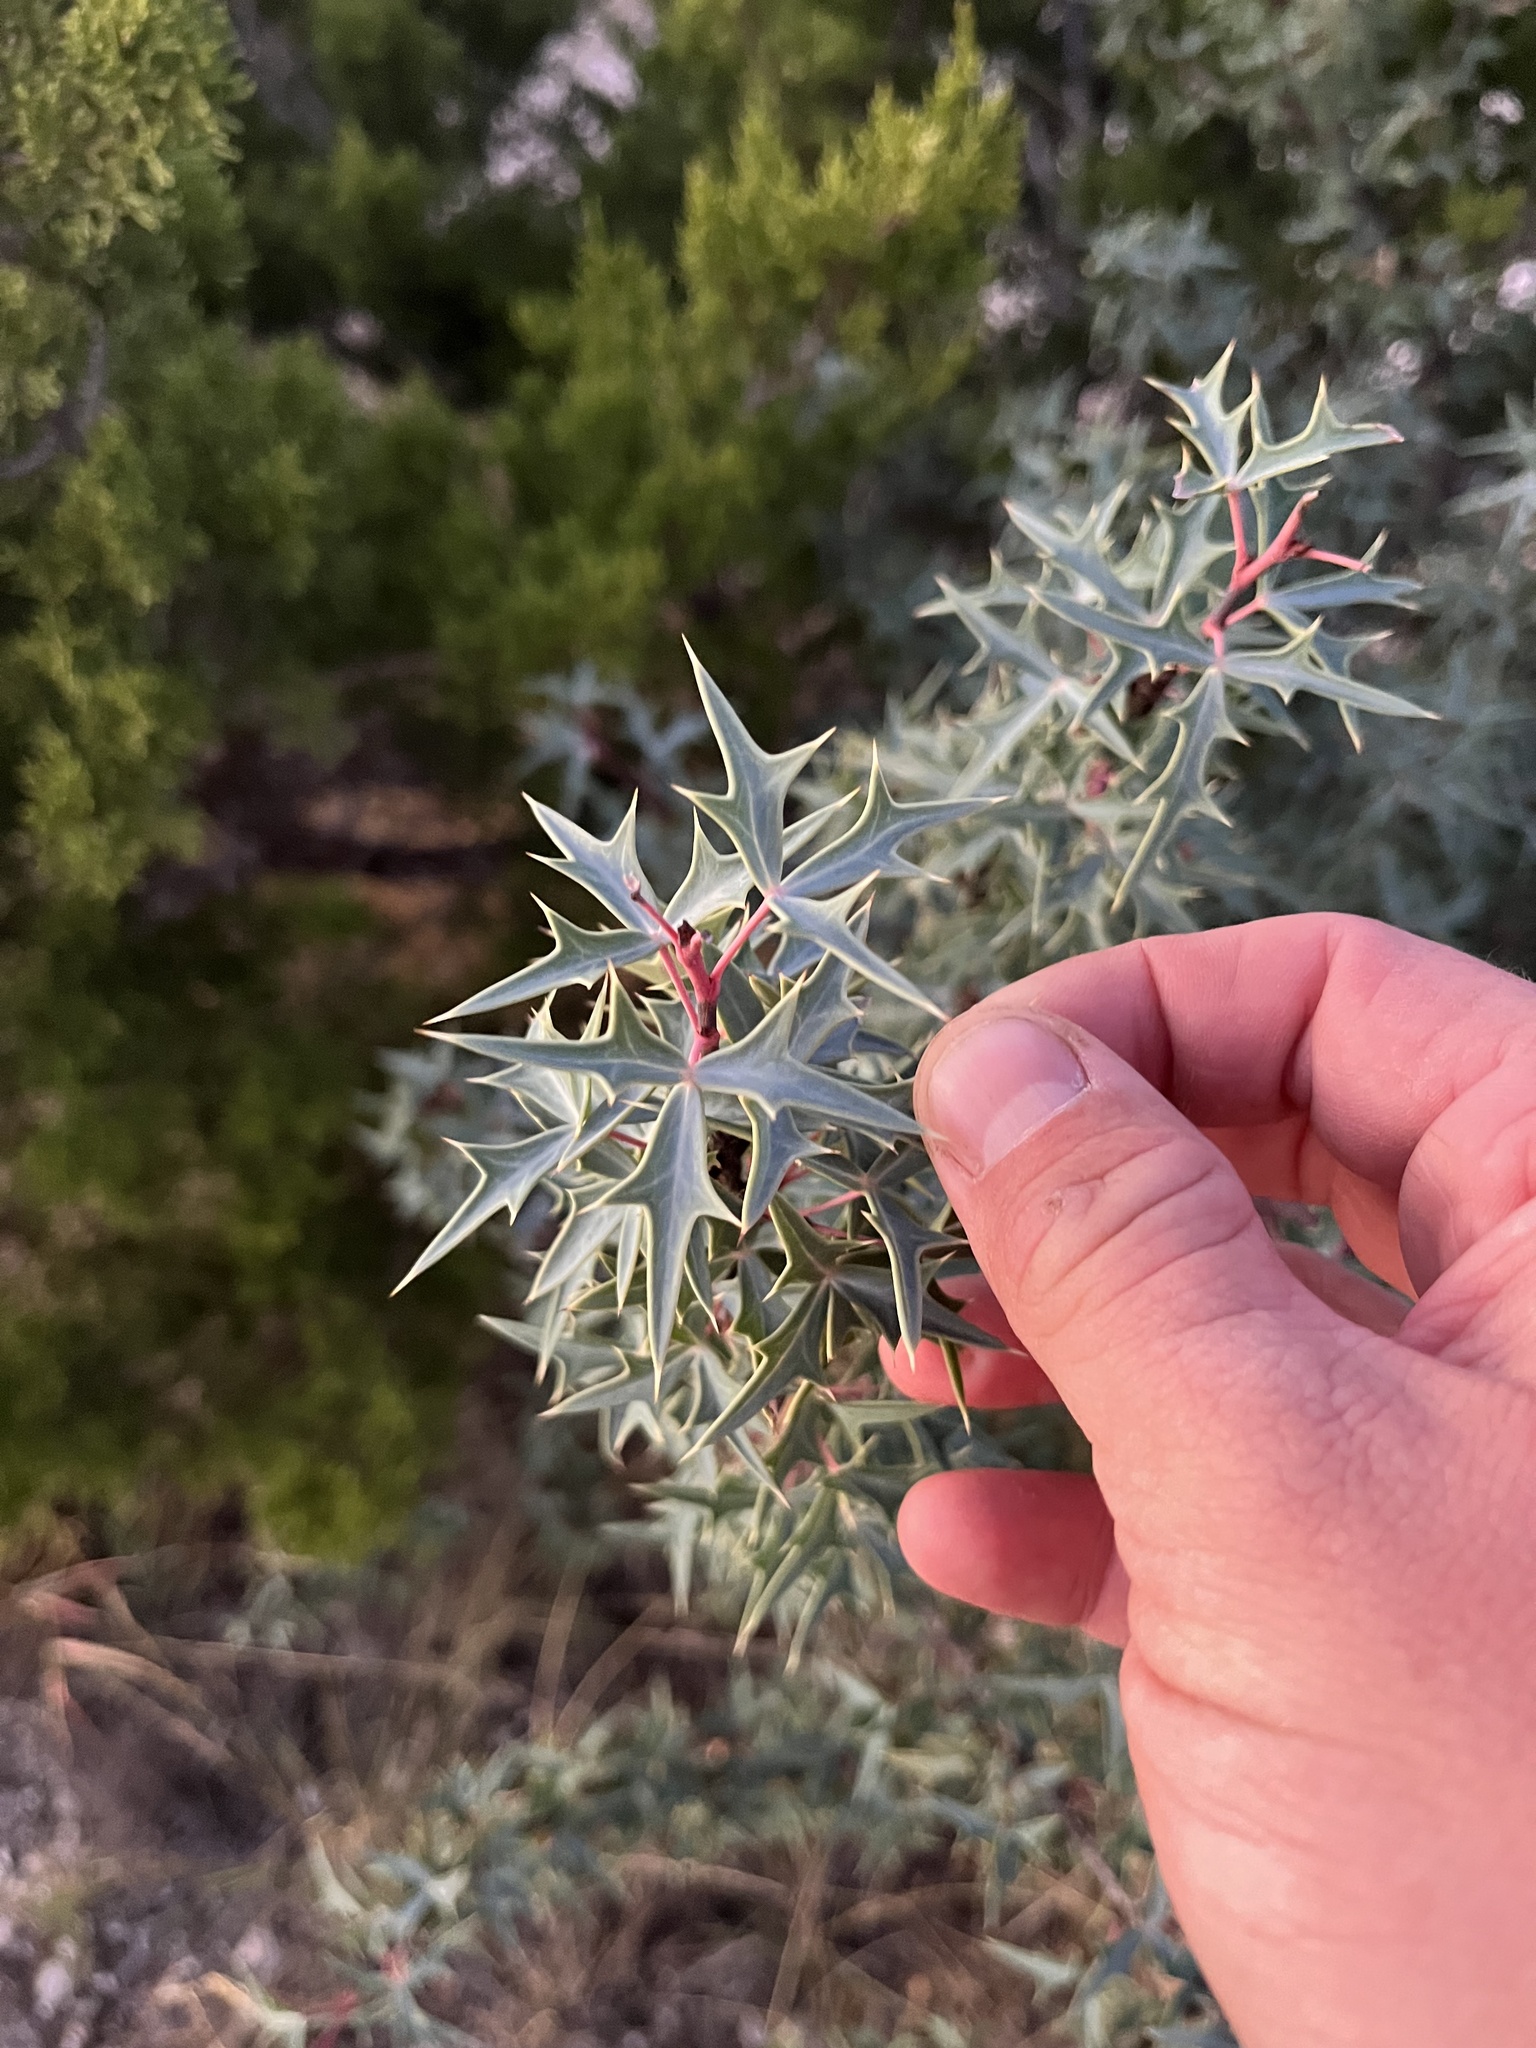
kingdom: Plantae
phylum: Tracheophyta
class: Magnoliopsida
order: Ranunculales
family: Berberidaceae
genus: Alloberberis
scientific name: Alloberberis trifoliolata
